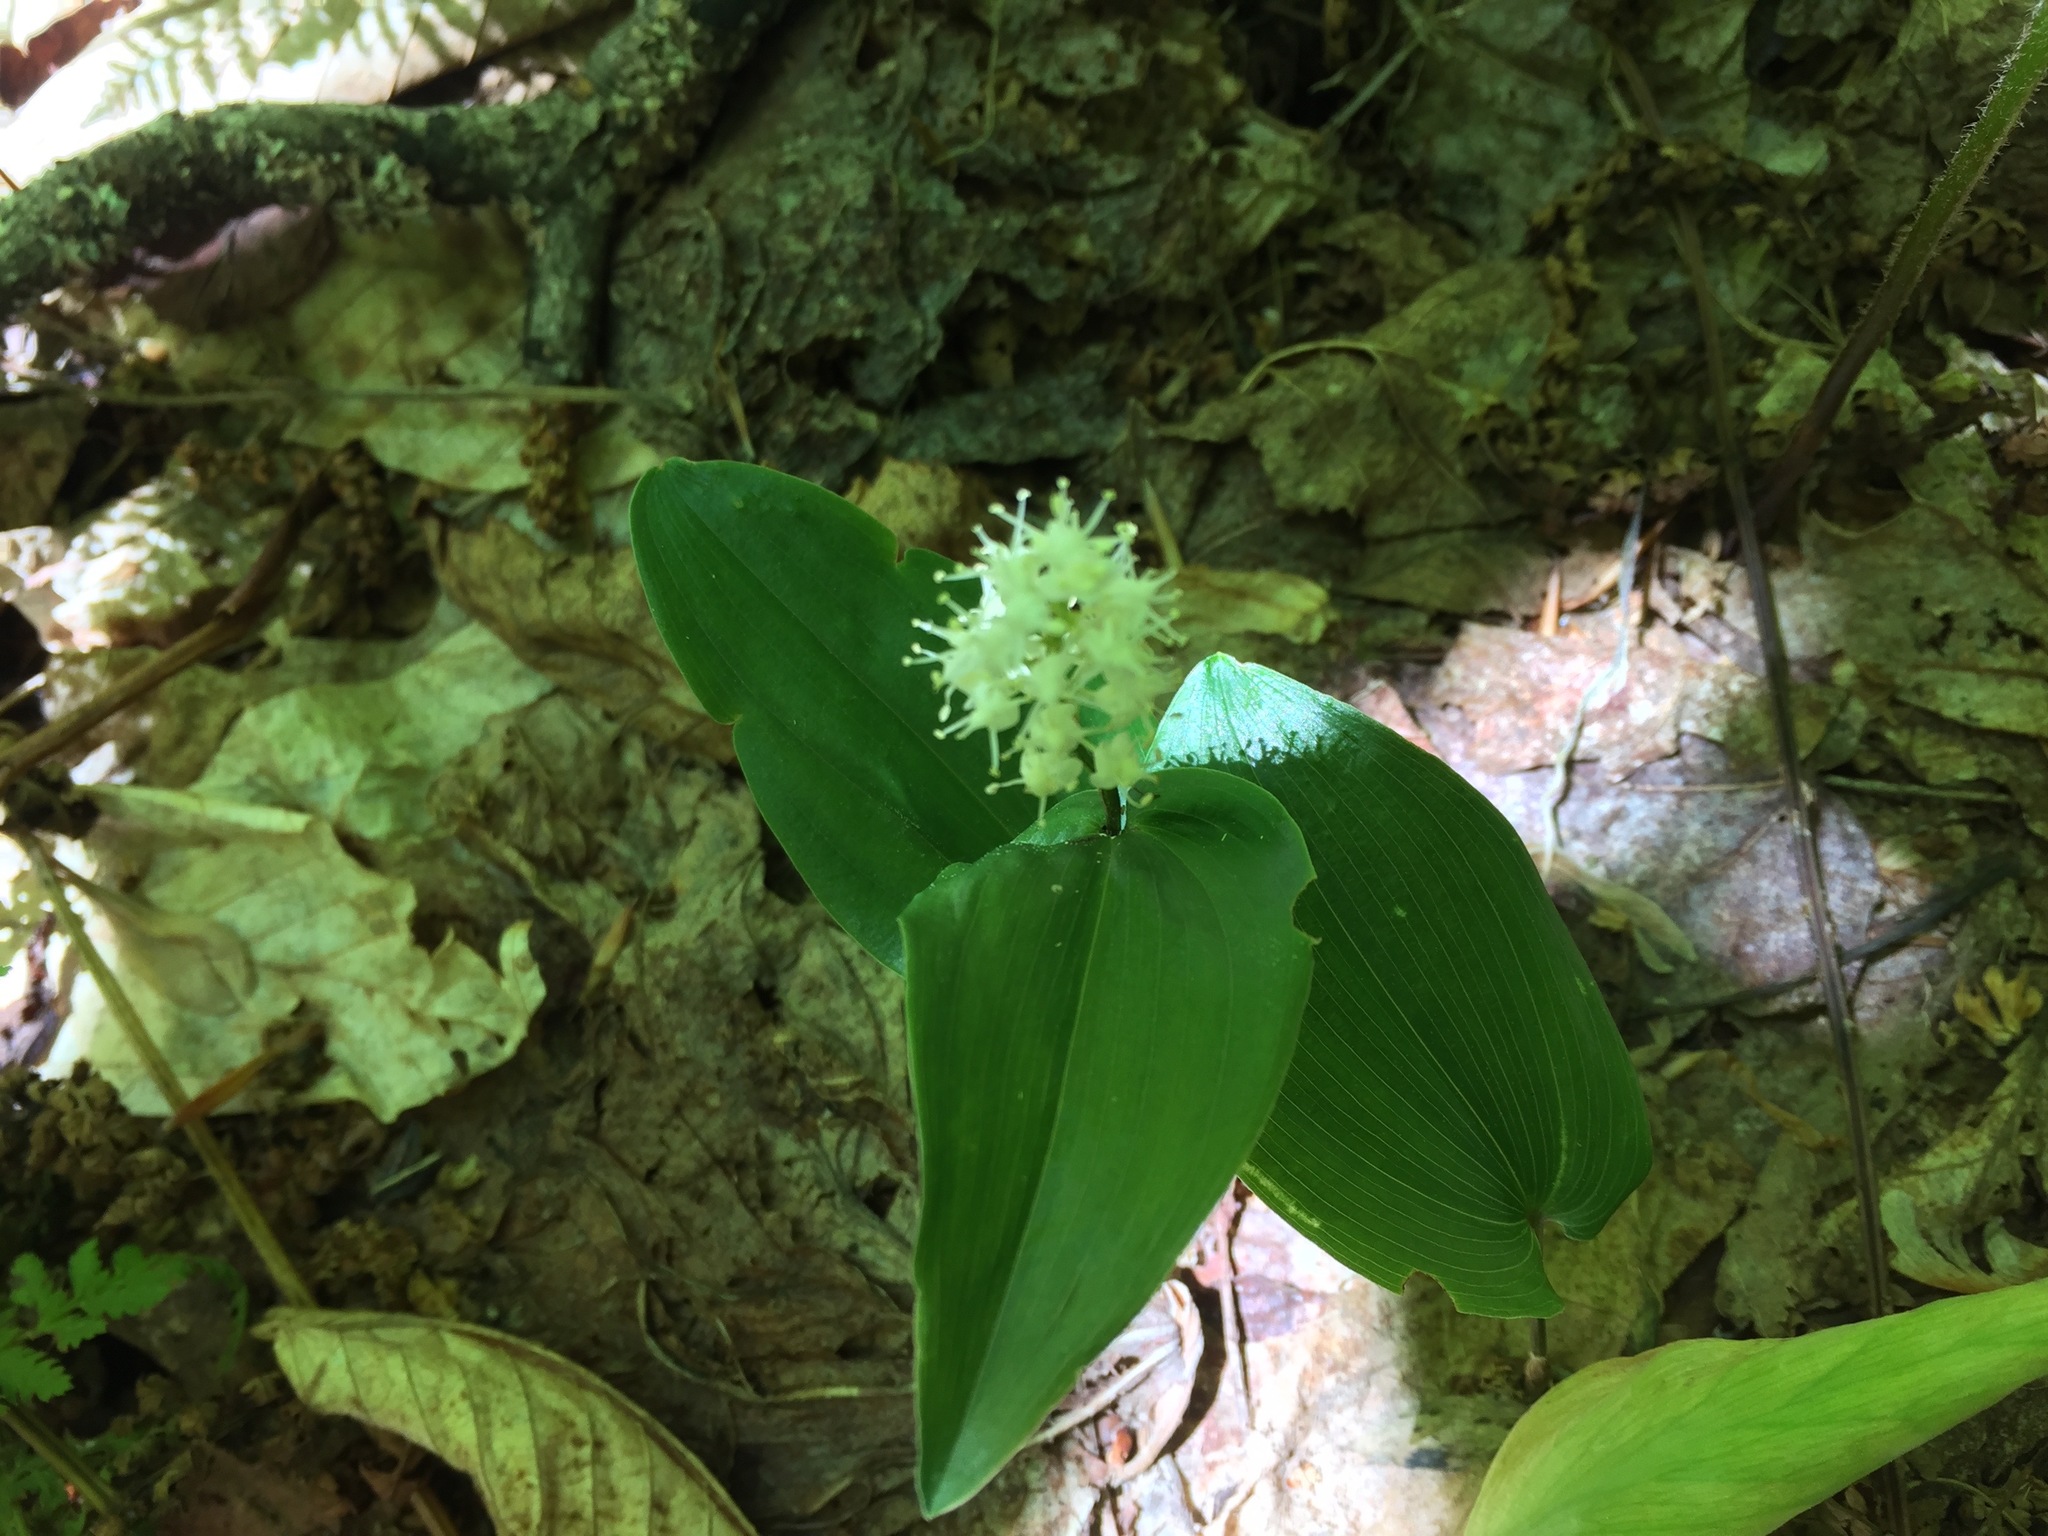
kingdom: Plantae
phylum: Tracheophyta
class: Liliopsida
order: Asparagales
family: Asparagaceae
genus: Maianthemum
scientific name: Maianthemum canadense
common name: False lily-of-the-valley
